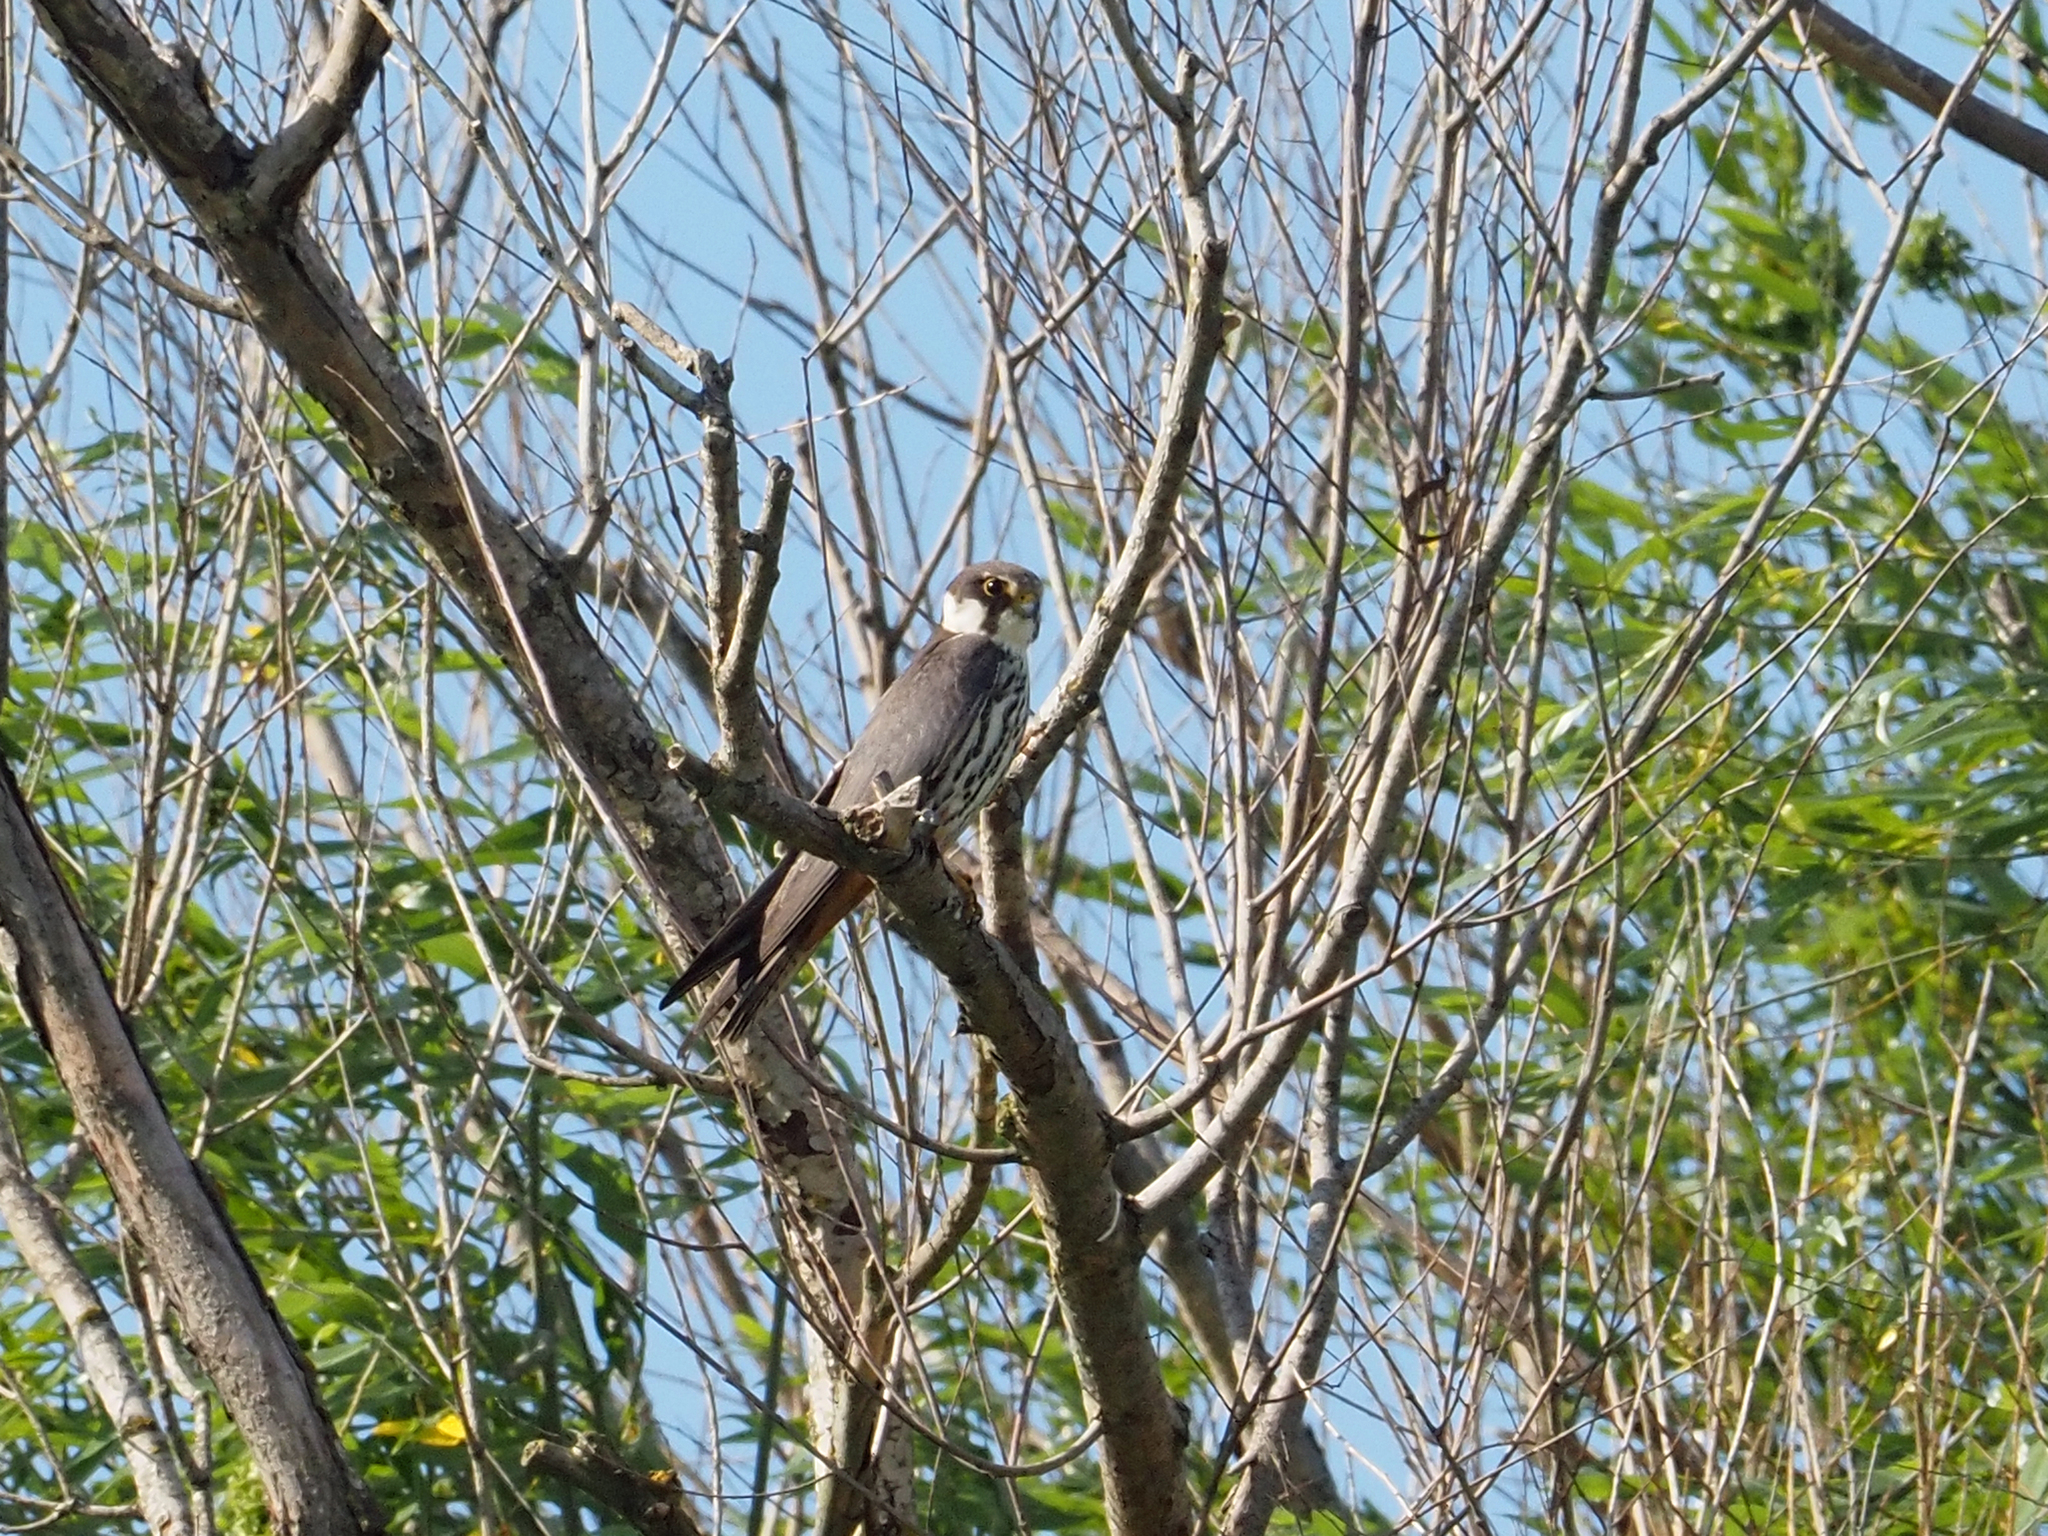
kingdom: Animalia
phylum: Chordata
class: Aves
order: Falconiformes
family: Falconidae
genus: Falco
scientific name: Falco subbuteo
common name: Eurasian hobby
